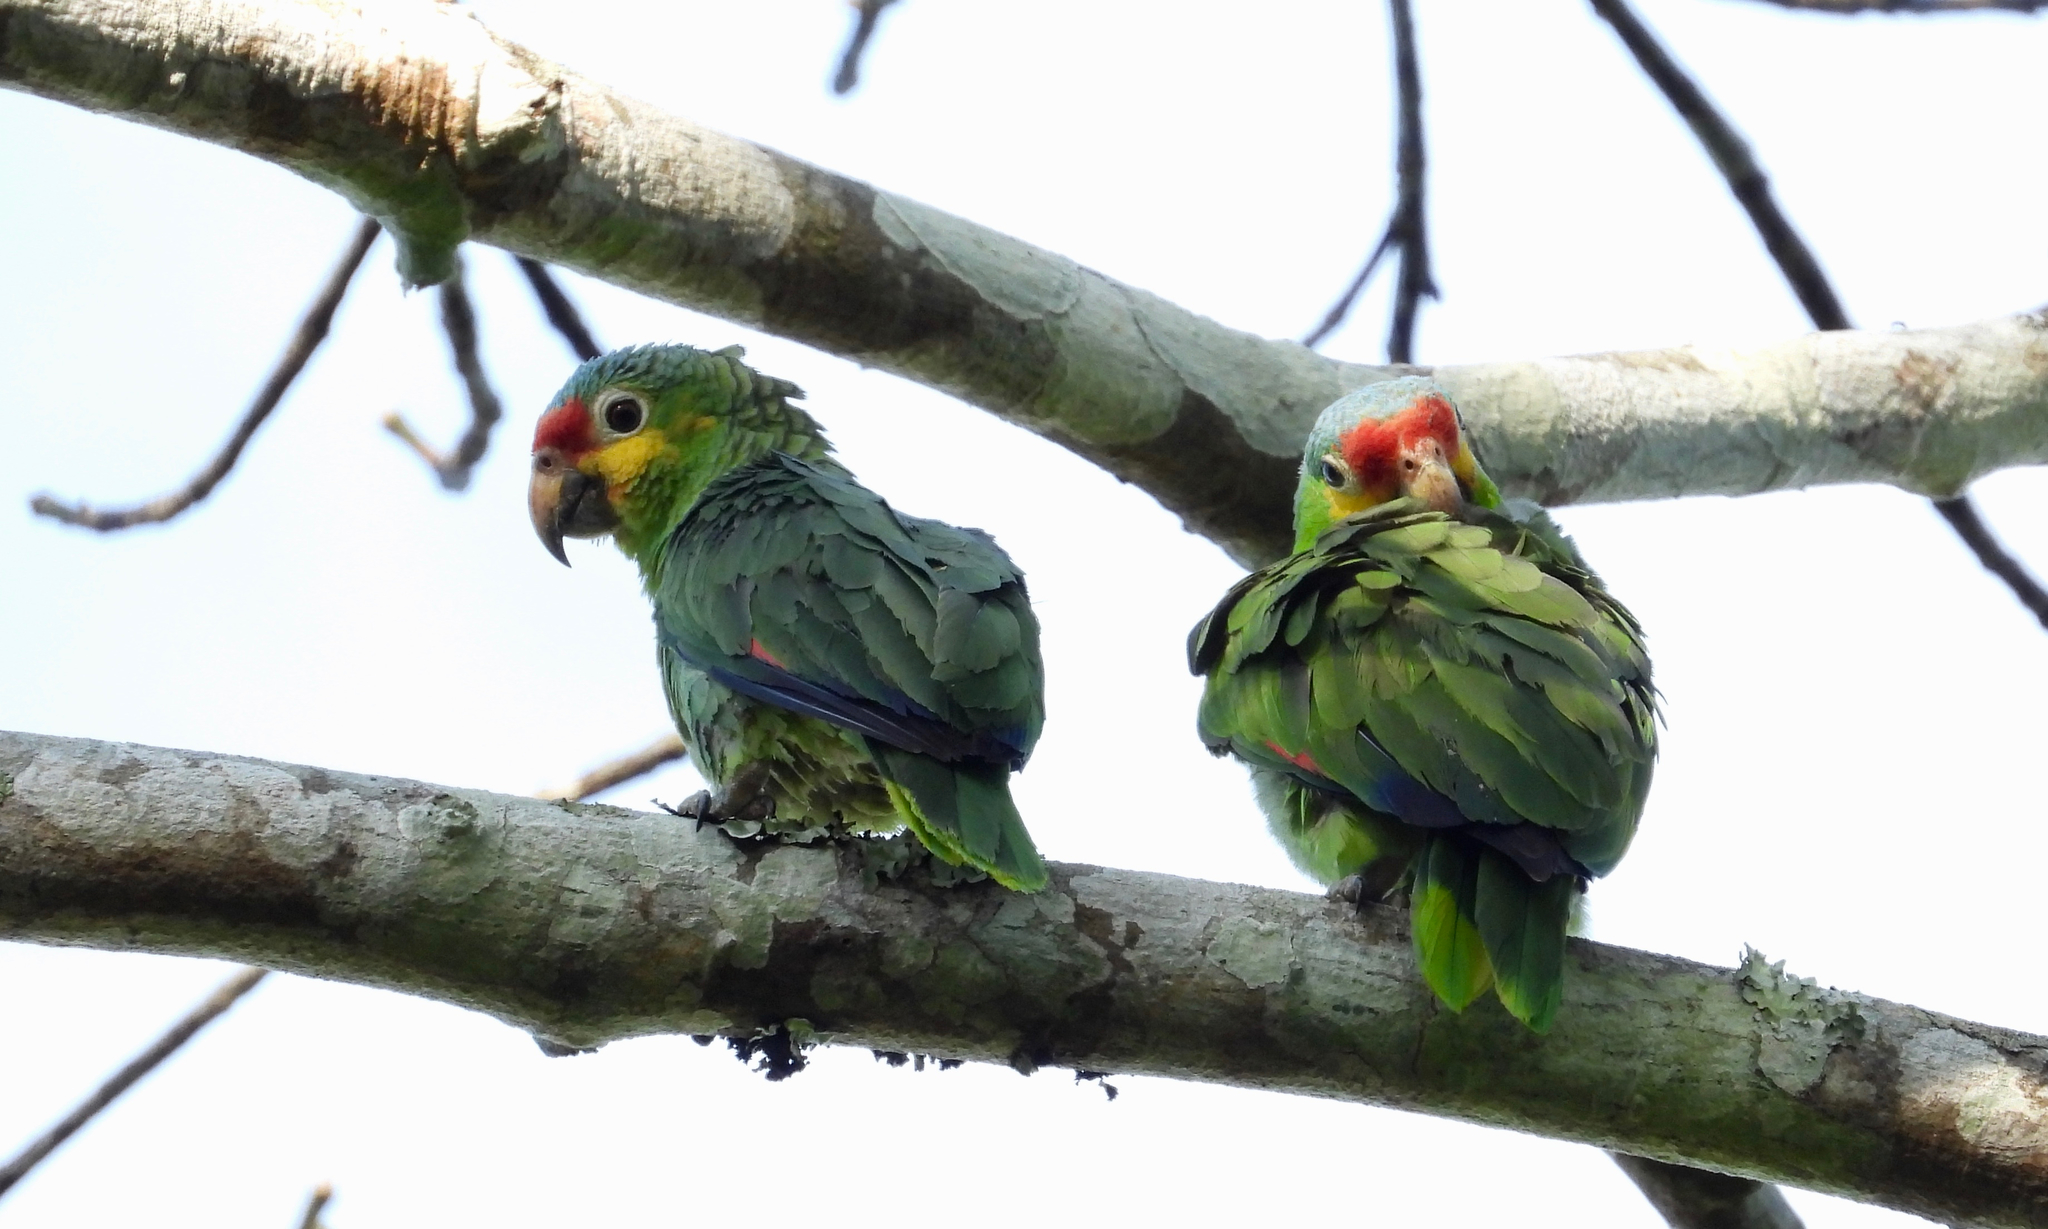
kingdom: Animalia
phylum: Chordata
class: Aves
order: Psittaciformes
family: Psittacidae
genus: Amazona
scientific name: Amazona autumnalis
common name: Red-lored amazon
